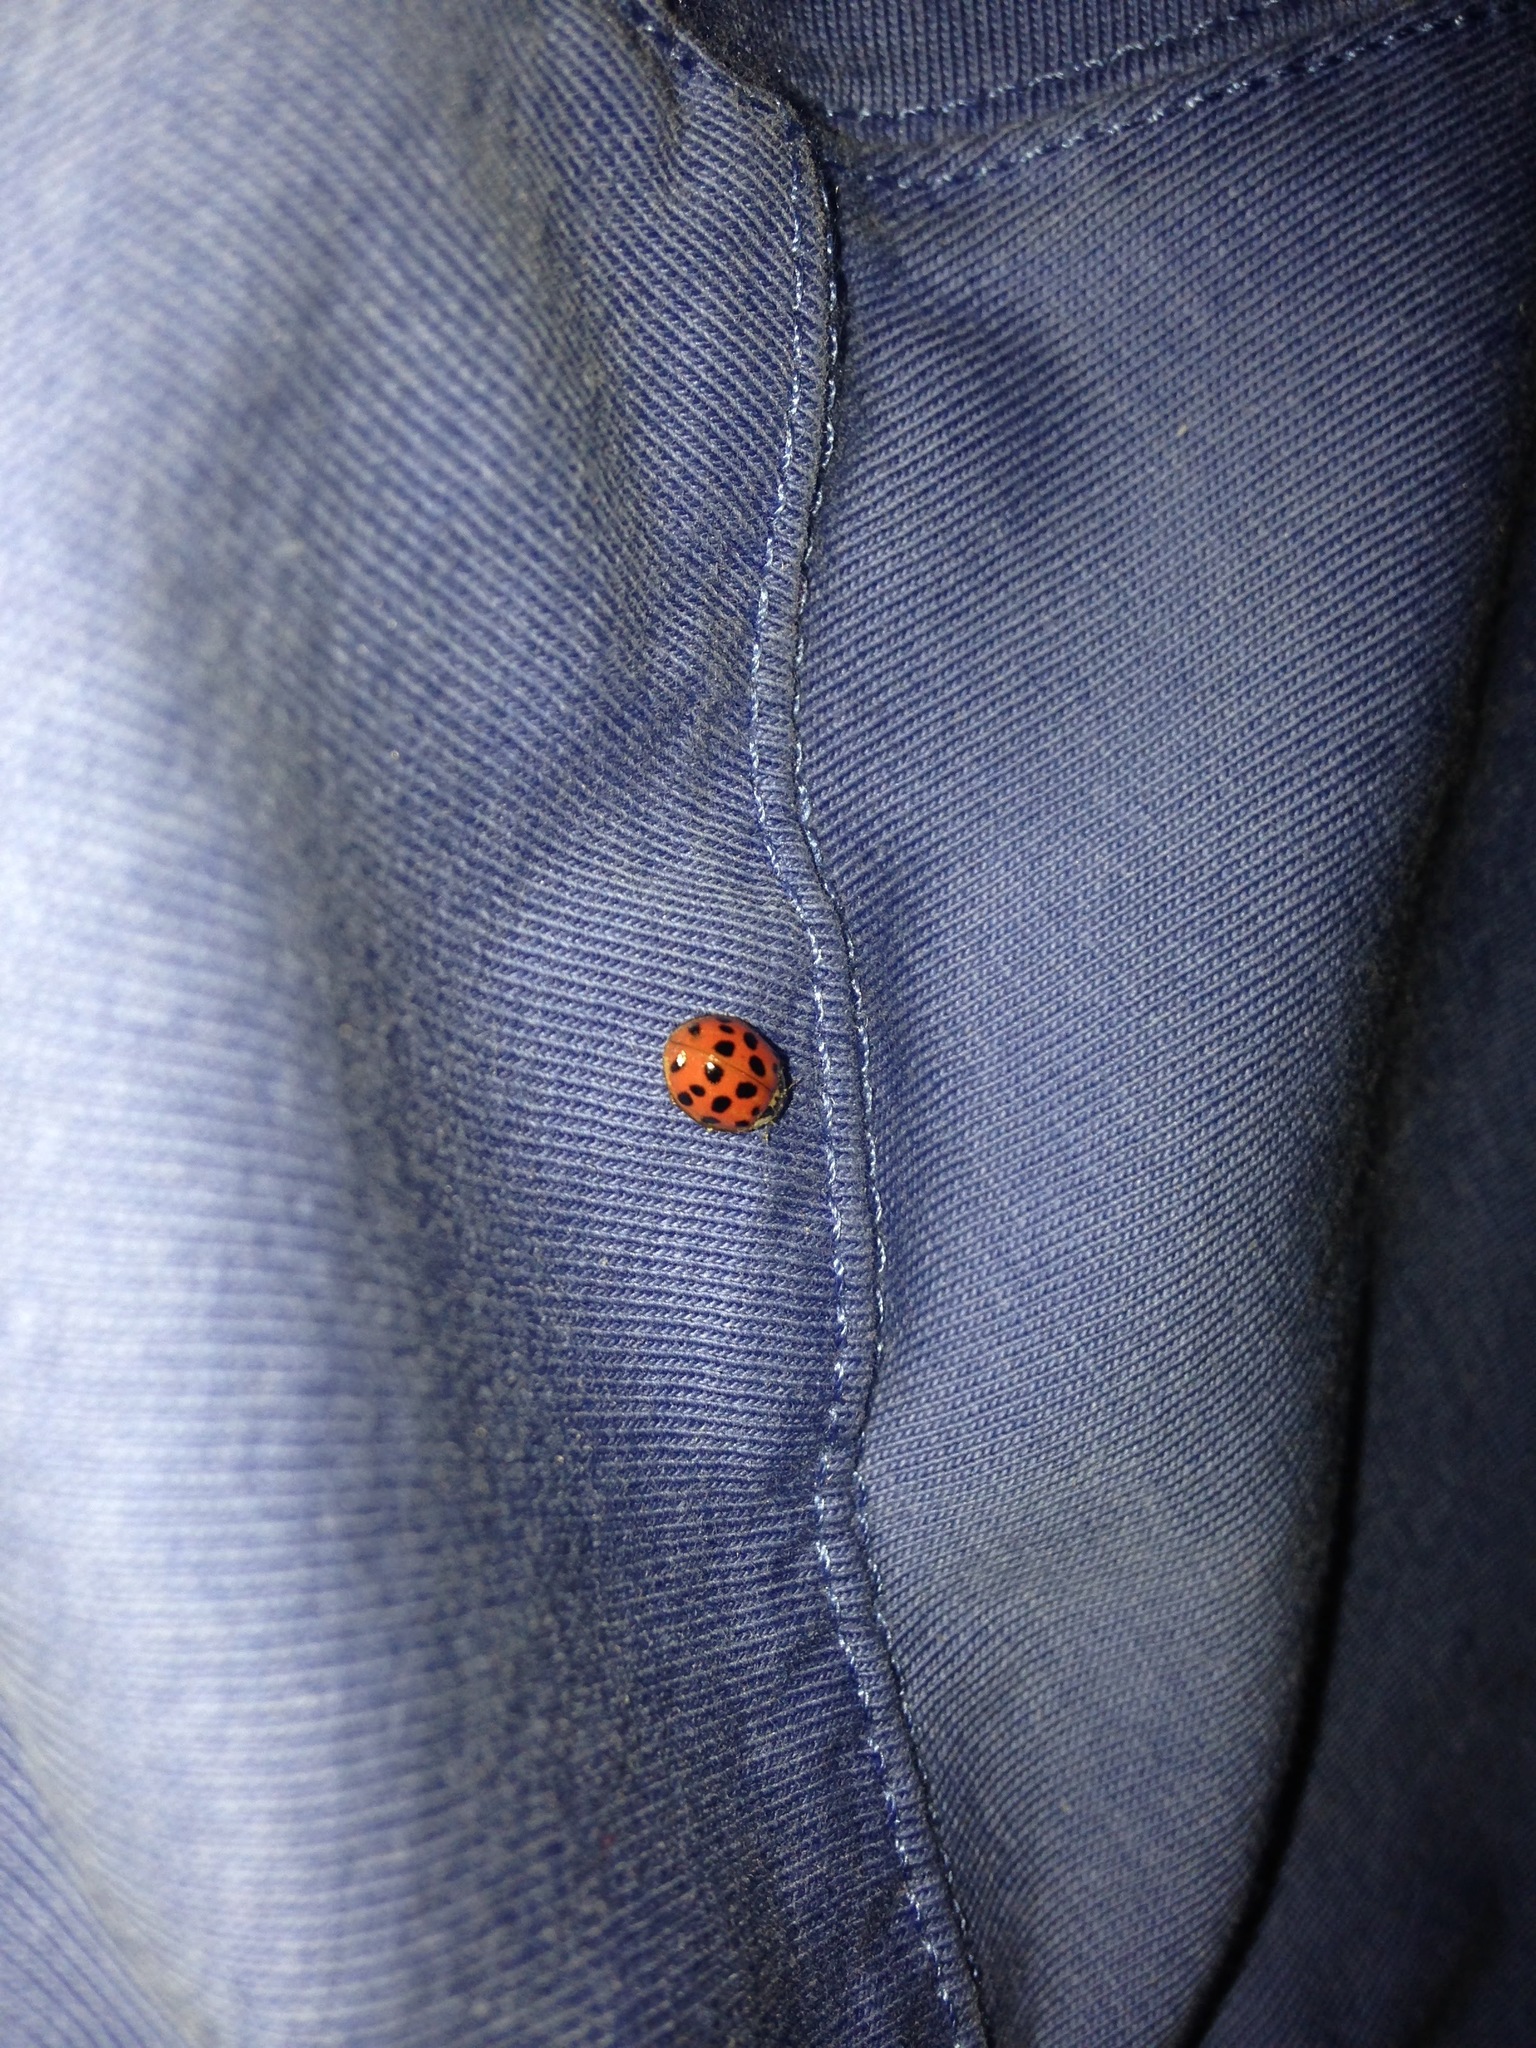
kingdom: Animalia
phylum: Arthropoda
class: Insecta
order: Coleoptera
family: Coccinellidae
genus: Harmonia
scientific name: Harmonia axyridis
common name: Harlequin ladybird
